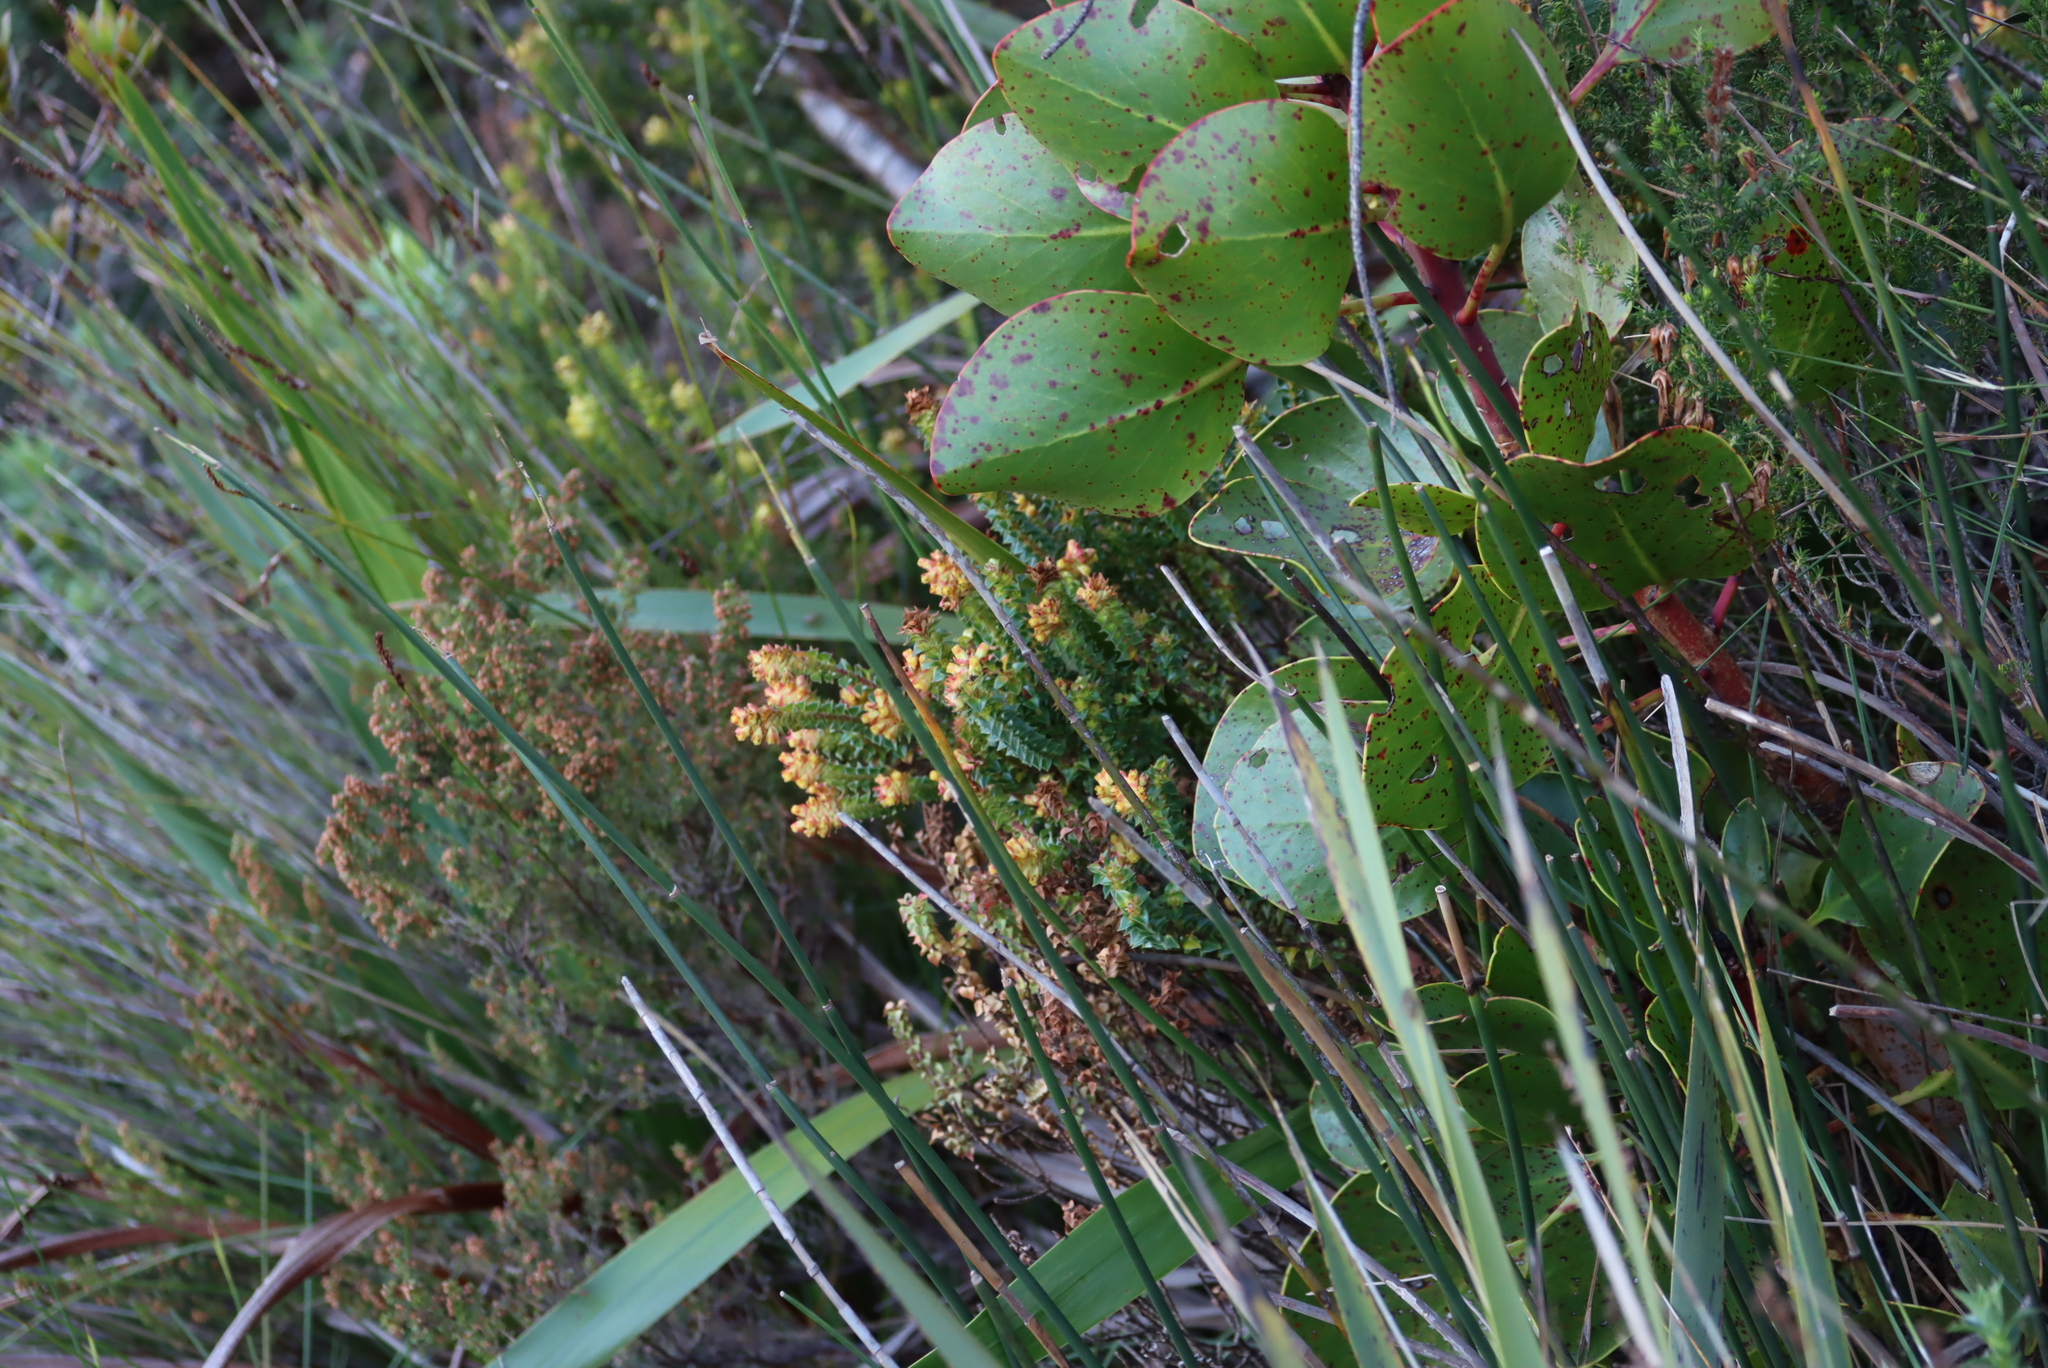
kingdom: Plantae
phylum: Tracheophyta
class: Magnoliopsida
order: Myrtales
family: Penaeaceae
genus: Penaea
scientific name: Penaea mucronata
